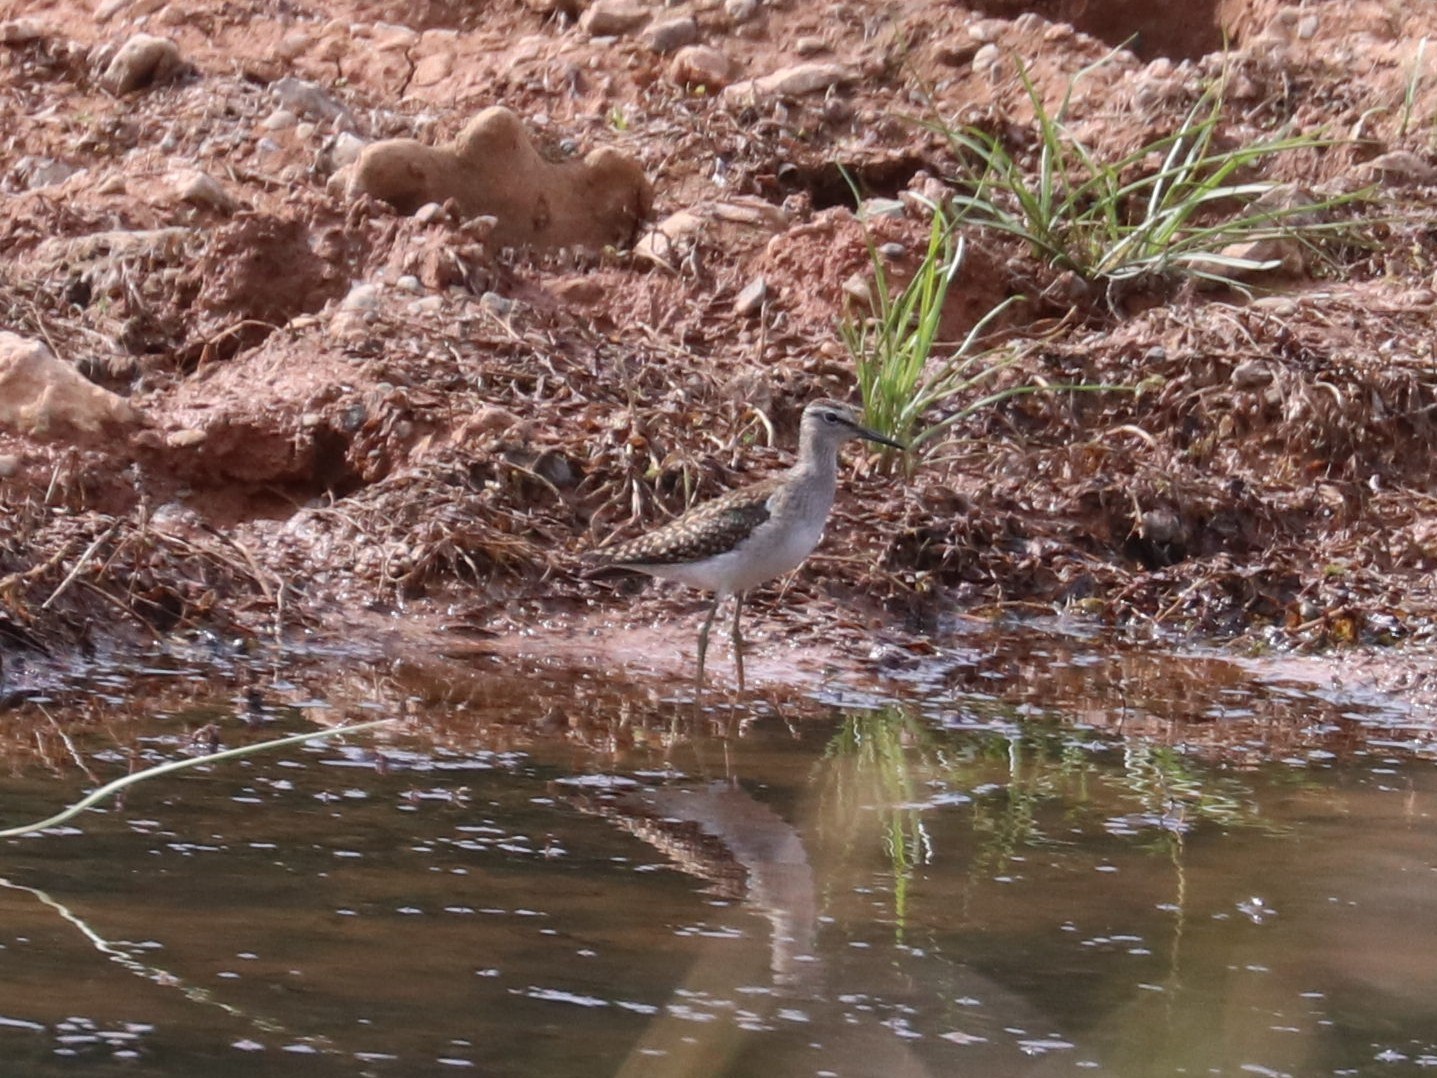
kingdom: Animalia
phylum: Chordata
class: Aves
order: Charadriiformes
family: Scolopacidae
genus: Tringa
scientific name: Tringa glareola
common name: Wood sandpiper
